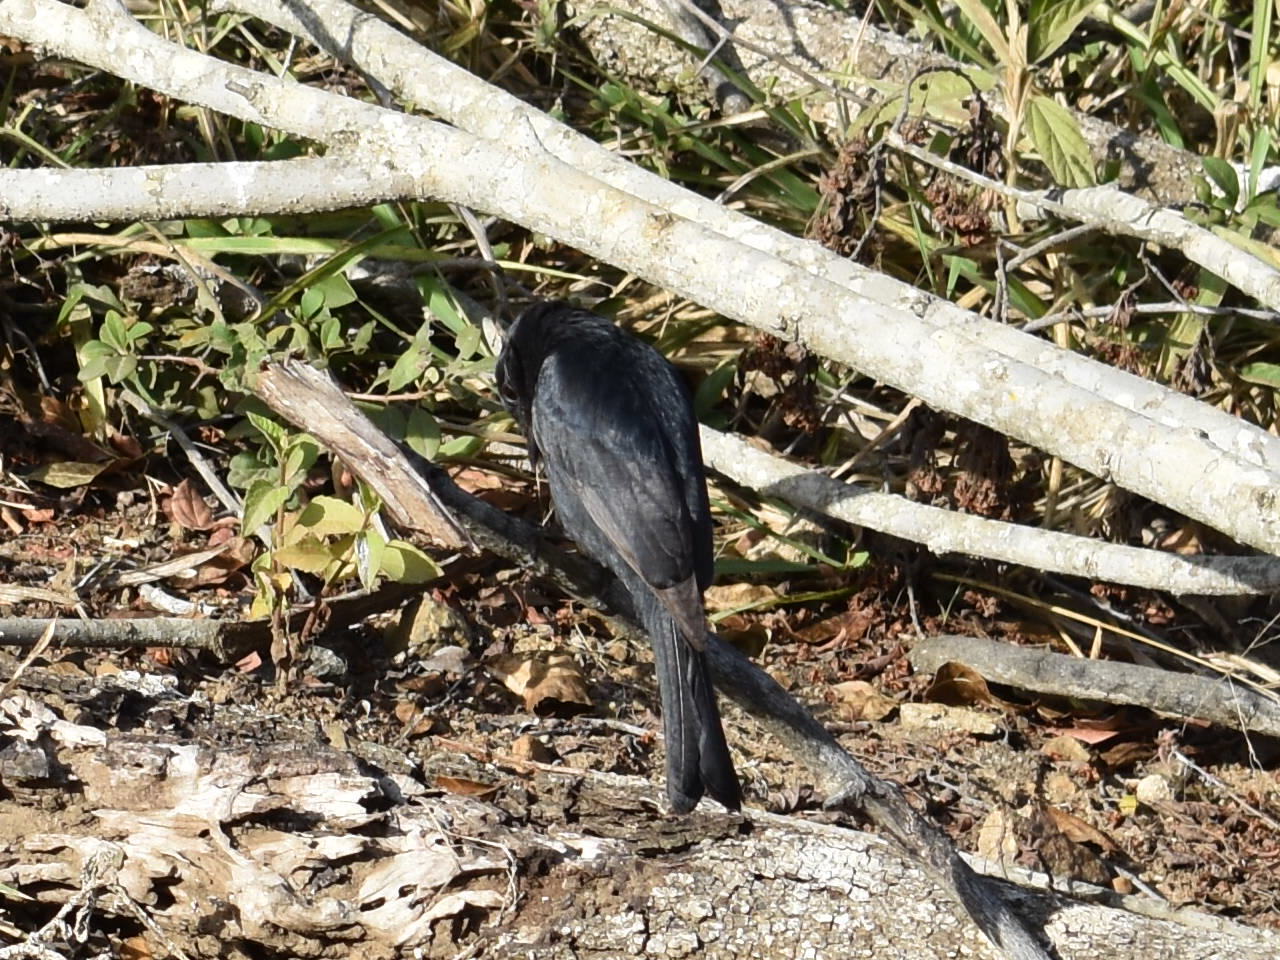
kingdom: Animalia
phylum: Chordata
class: Aves
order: Passeriformes
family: Dicruridae
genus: Dicrurus
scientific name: Dicrurus adsimilis
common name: Fork-tailed drongo
